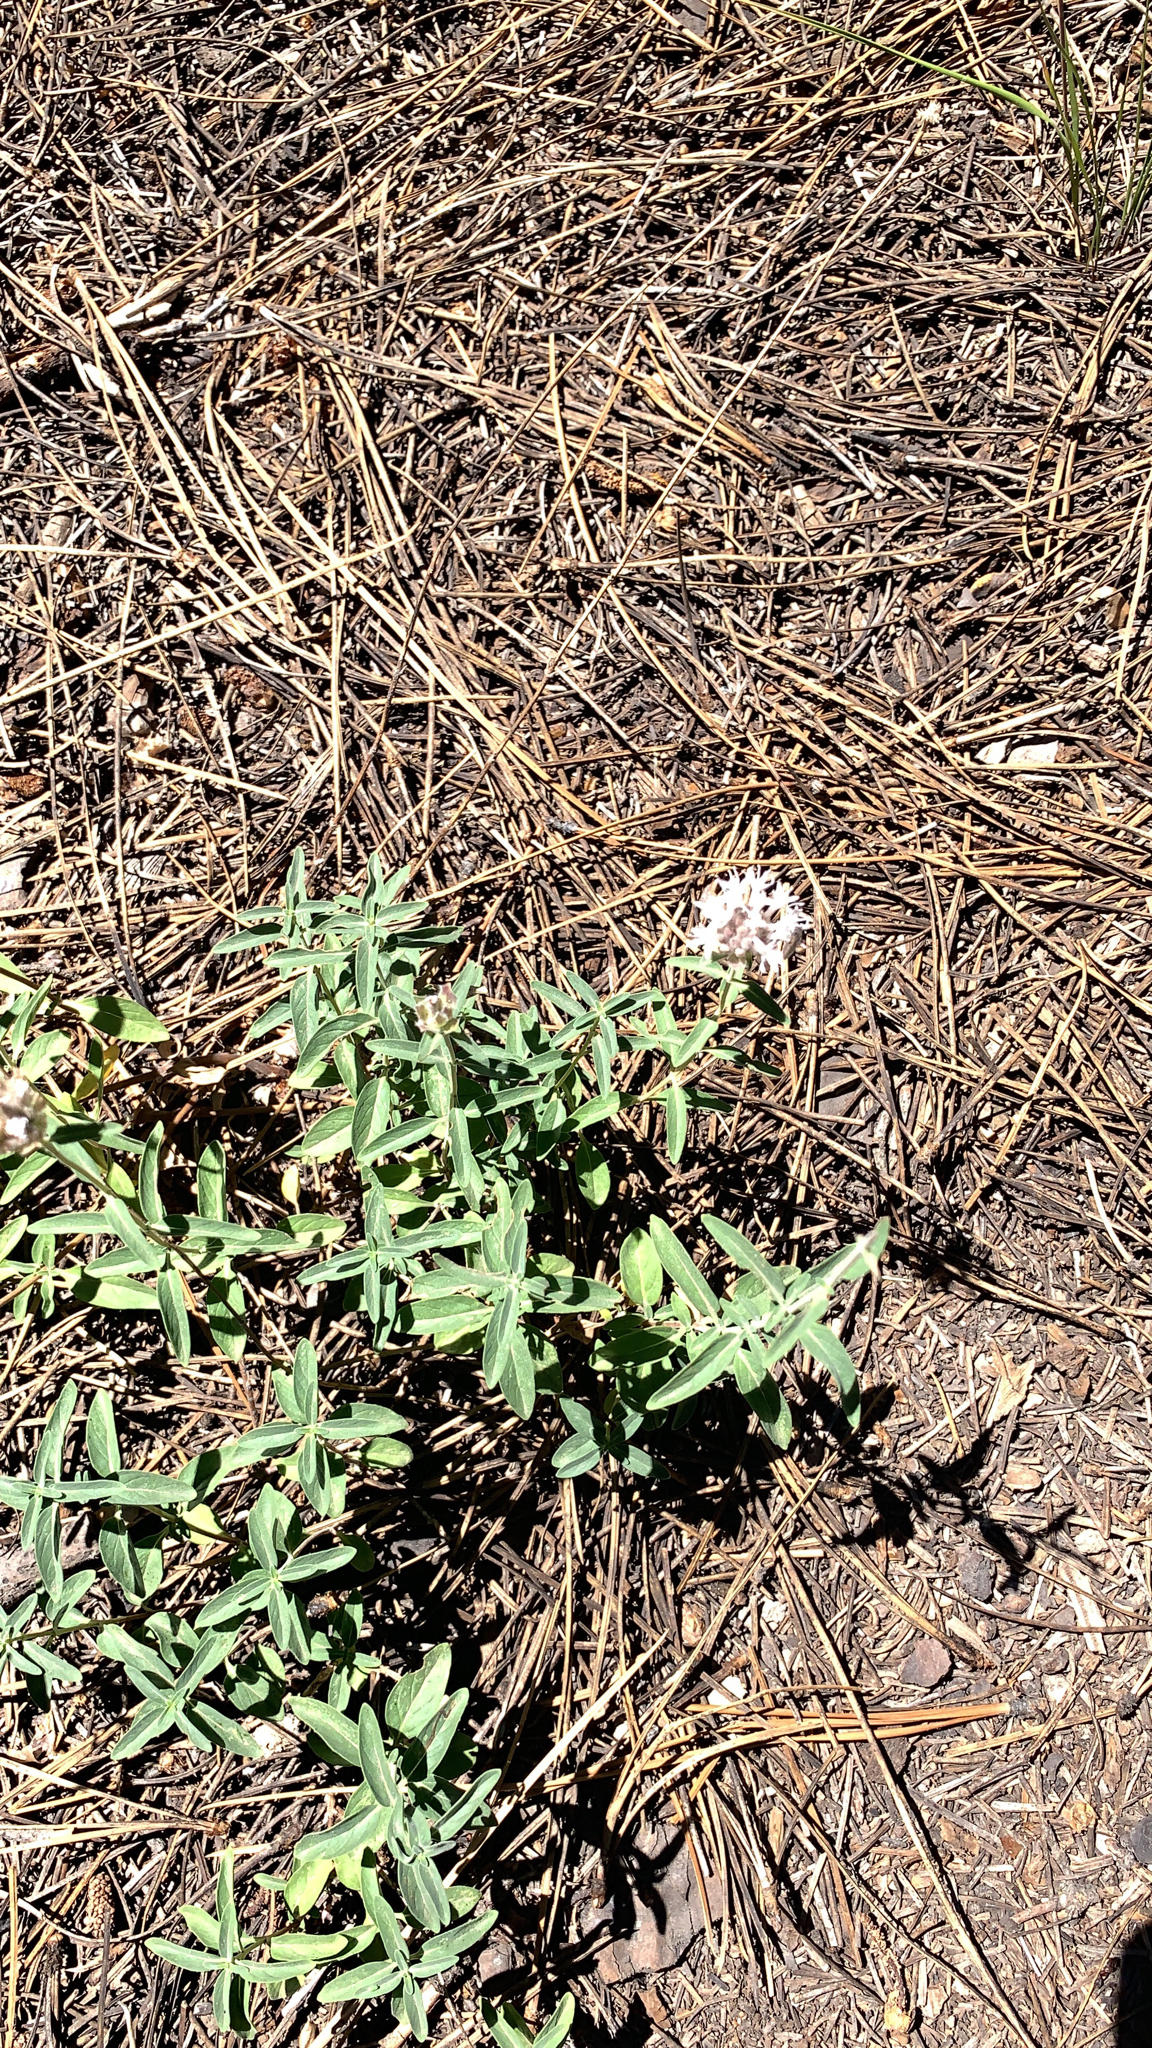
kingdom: Plantae
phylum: Tracheophyta
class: Magnoliopsida
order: Lamiales
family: Lamiaceae
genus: Monardella
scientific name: Monardella odoratissima
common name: Pacific monardella
